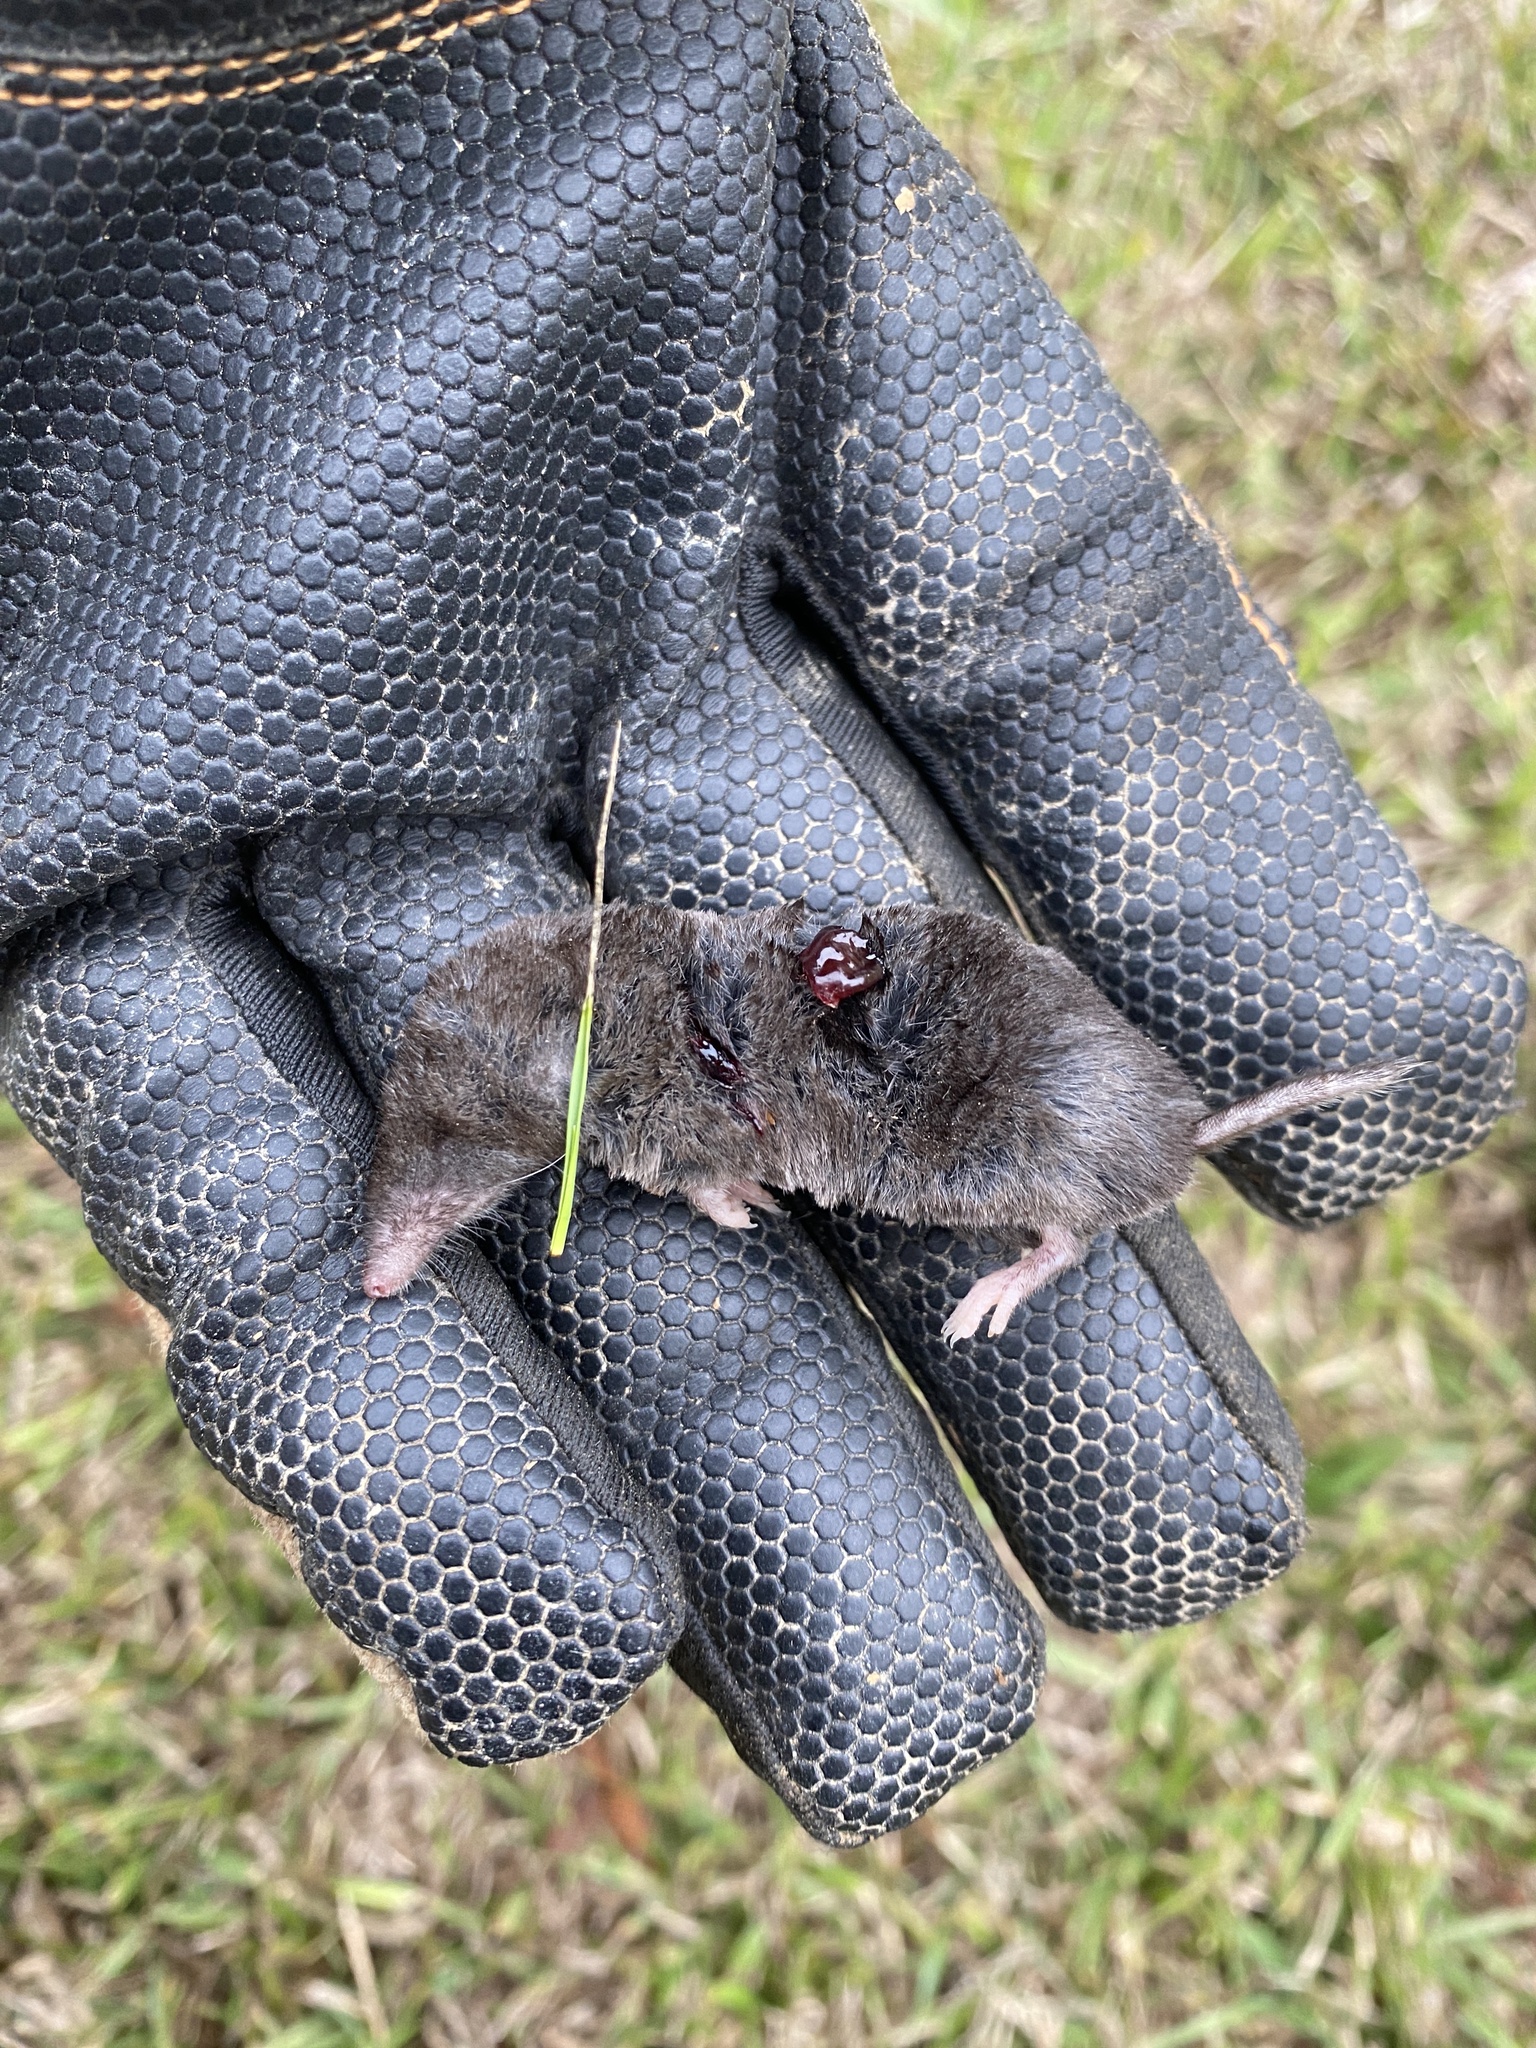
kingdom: Animalia
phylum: Chordata
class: Mammalia
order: Soricomorpha
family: Soricidae
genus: Blarina
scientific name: Blarina carolinensis
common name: Southern short-tailed shrew
